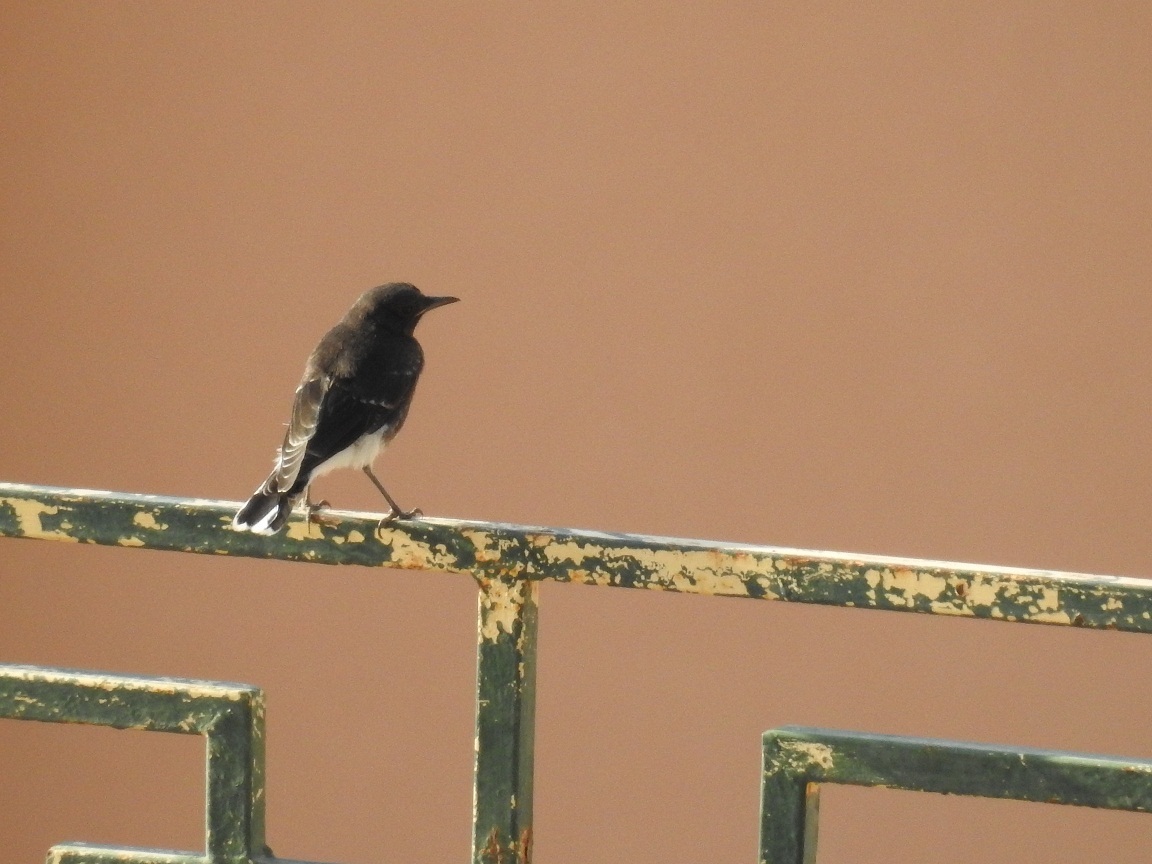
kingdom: Animalia
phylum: Chordata
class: Aves
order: Passeriformes
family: Muscicapidae
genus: Oenanthe
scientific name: Oenanthe leucopyga
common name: White-crowned wheatear
